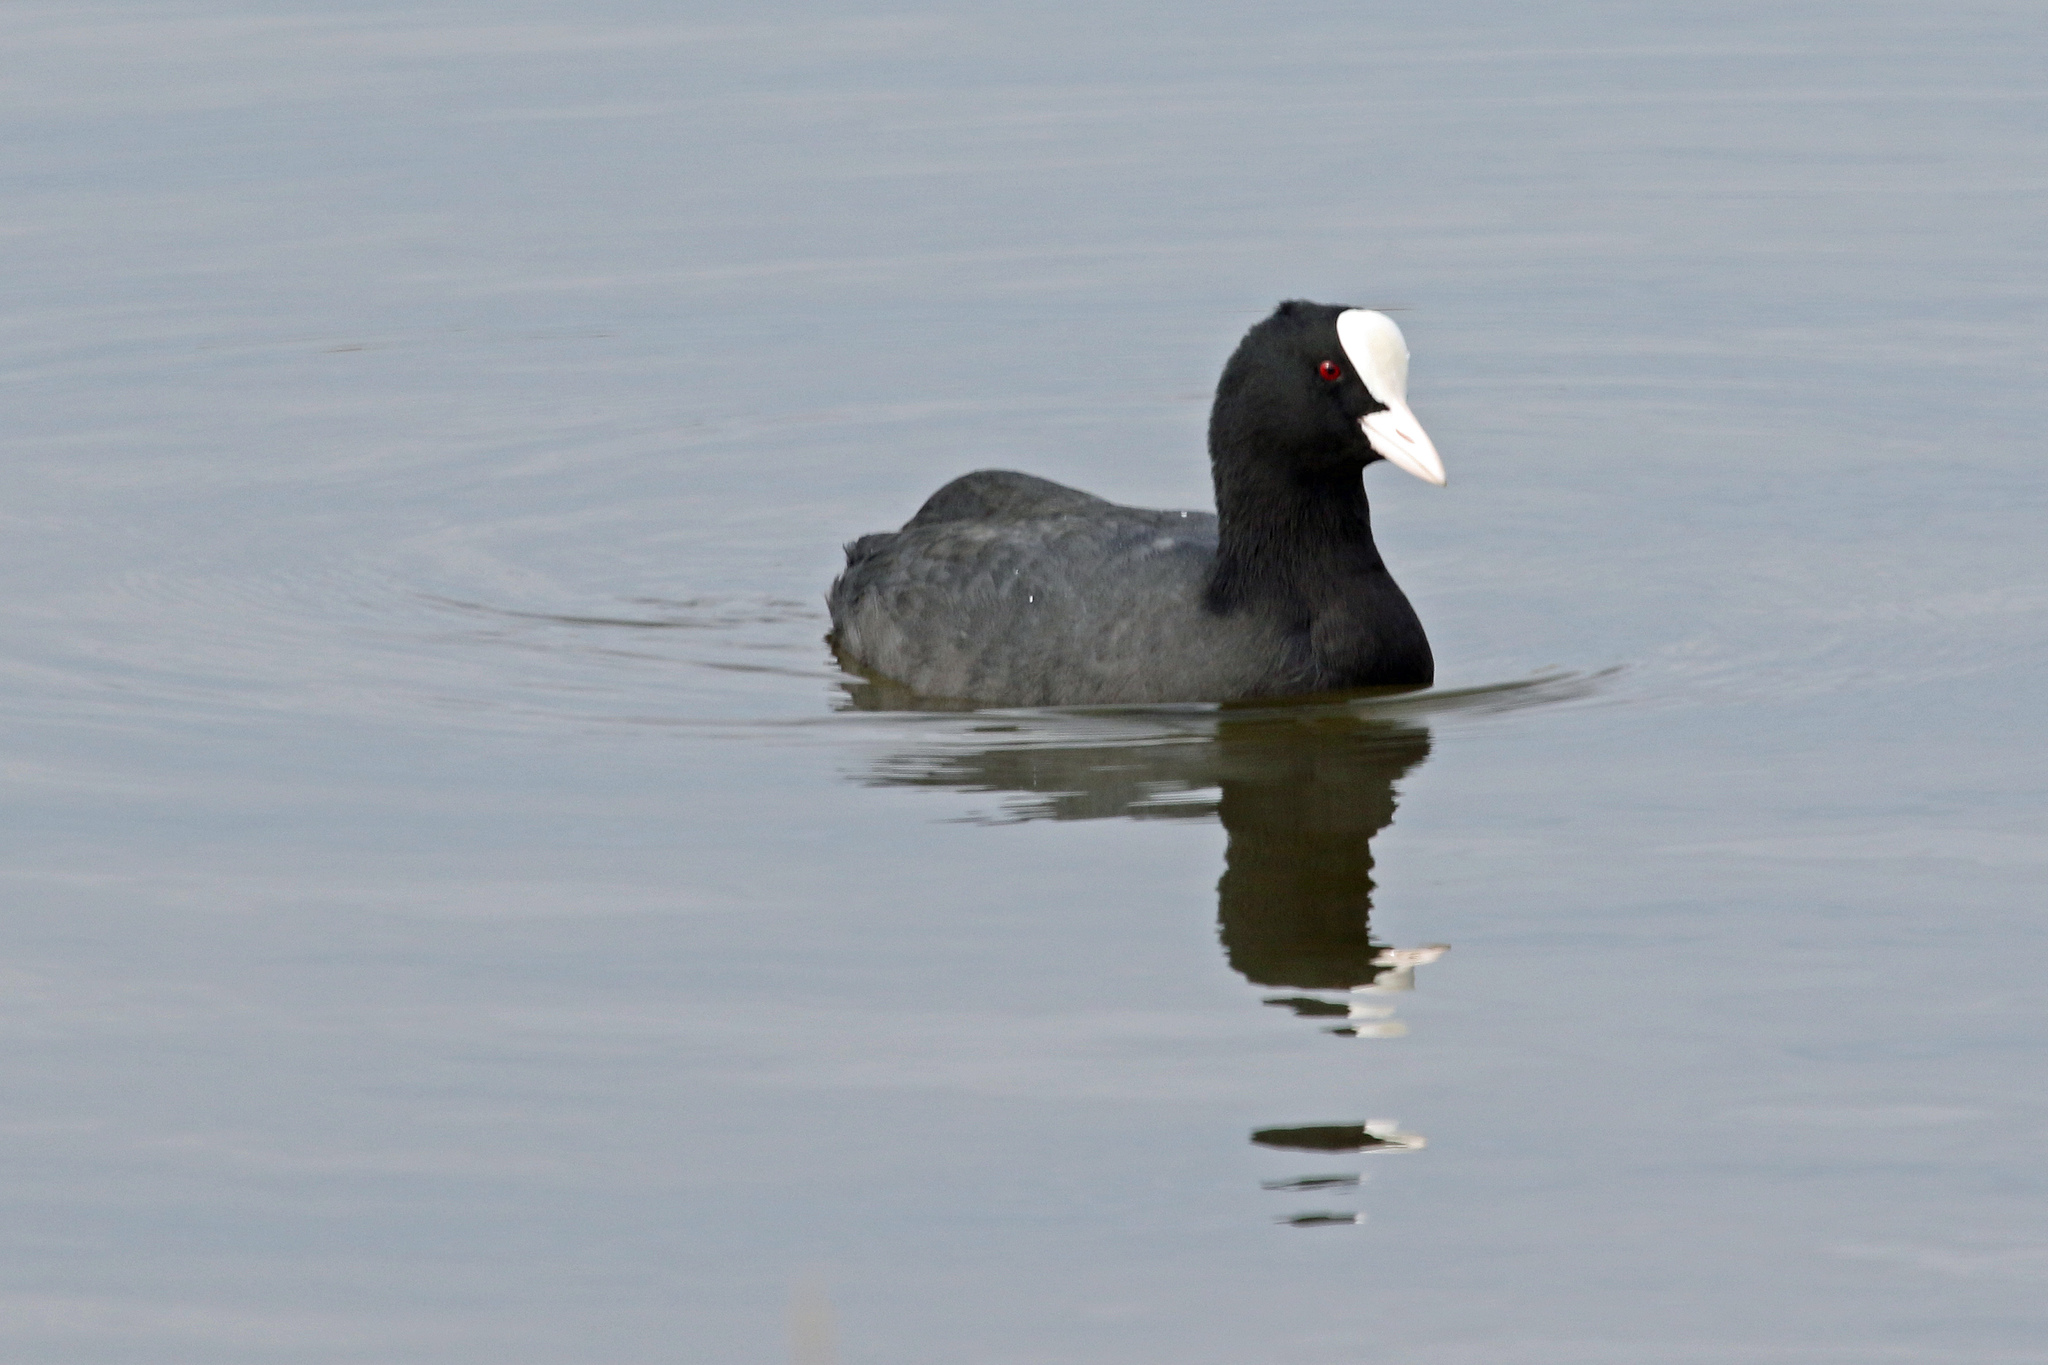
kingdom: Animalia
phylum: Chordata
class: Aves
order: Gruiformes
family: Rallidae
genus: Fulica
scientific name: Fulica atra
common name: Eurasian coot
